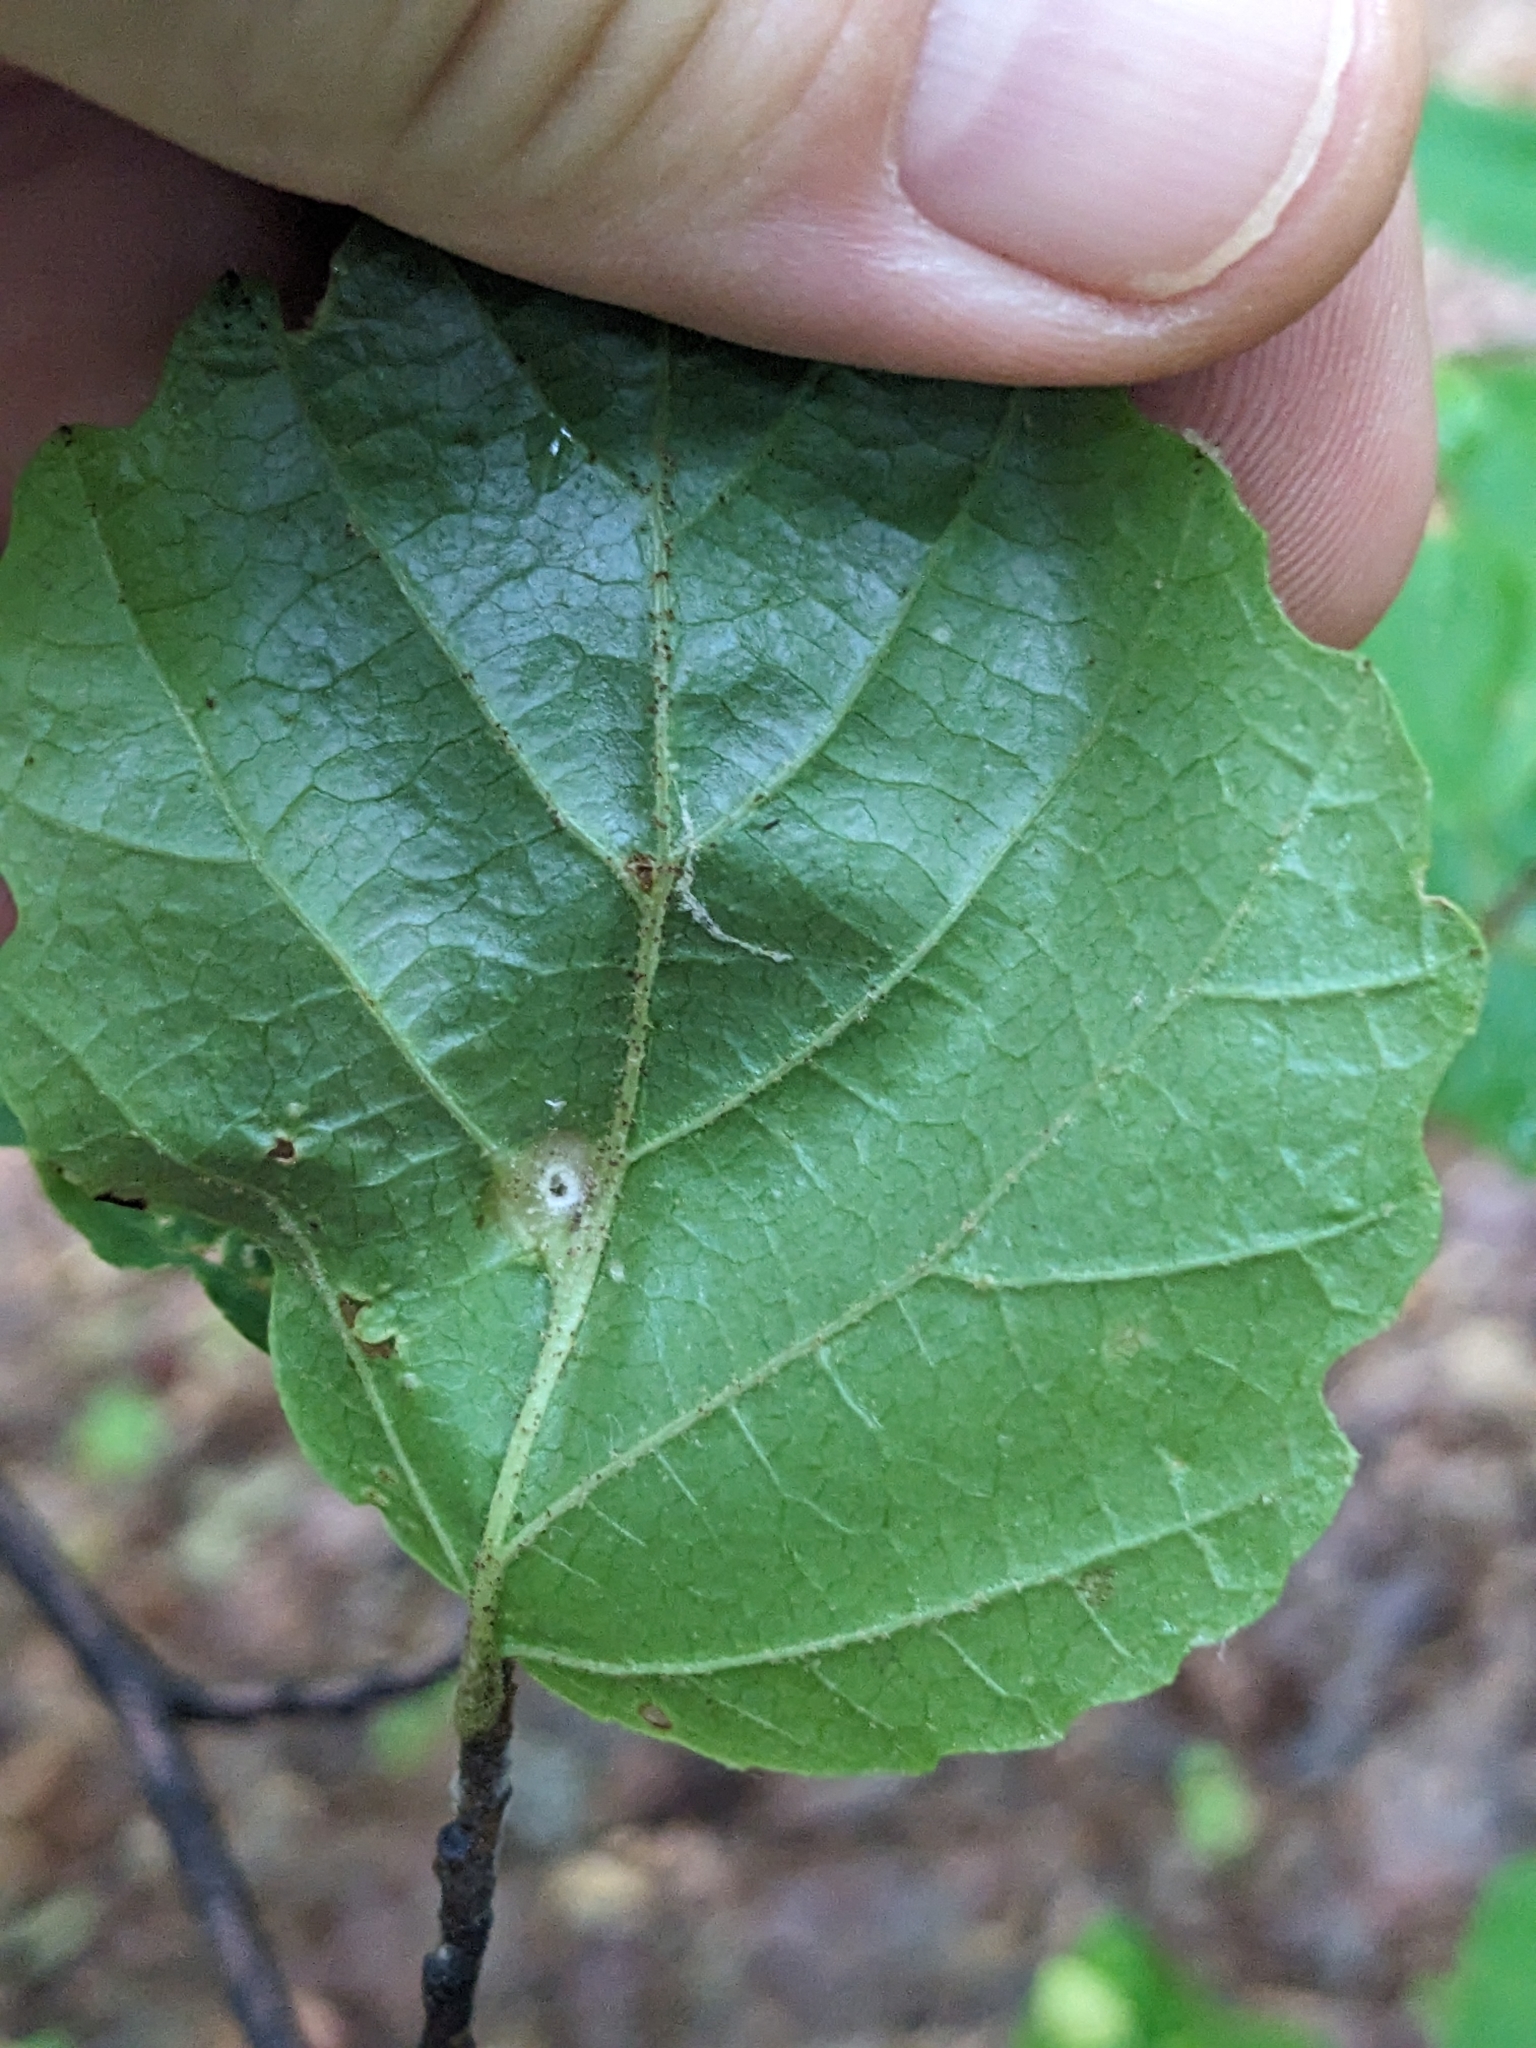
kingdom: Animalia
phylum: Arthropoda
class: Insecta
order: Hemiptera
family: Aphididae
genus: Hormaphis
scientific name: Hormaphis hamamelidis
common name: Witch-hazel cone gall aphid
